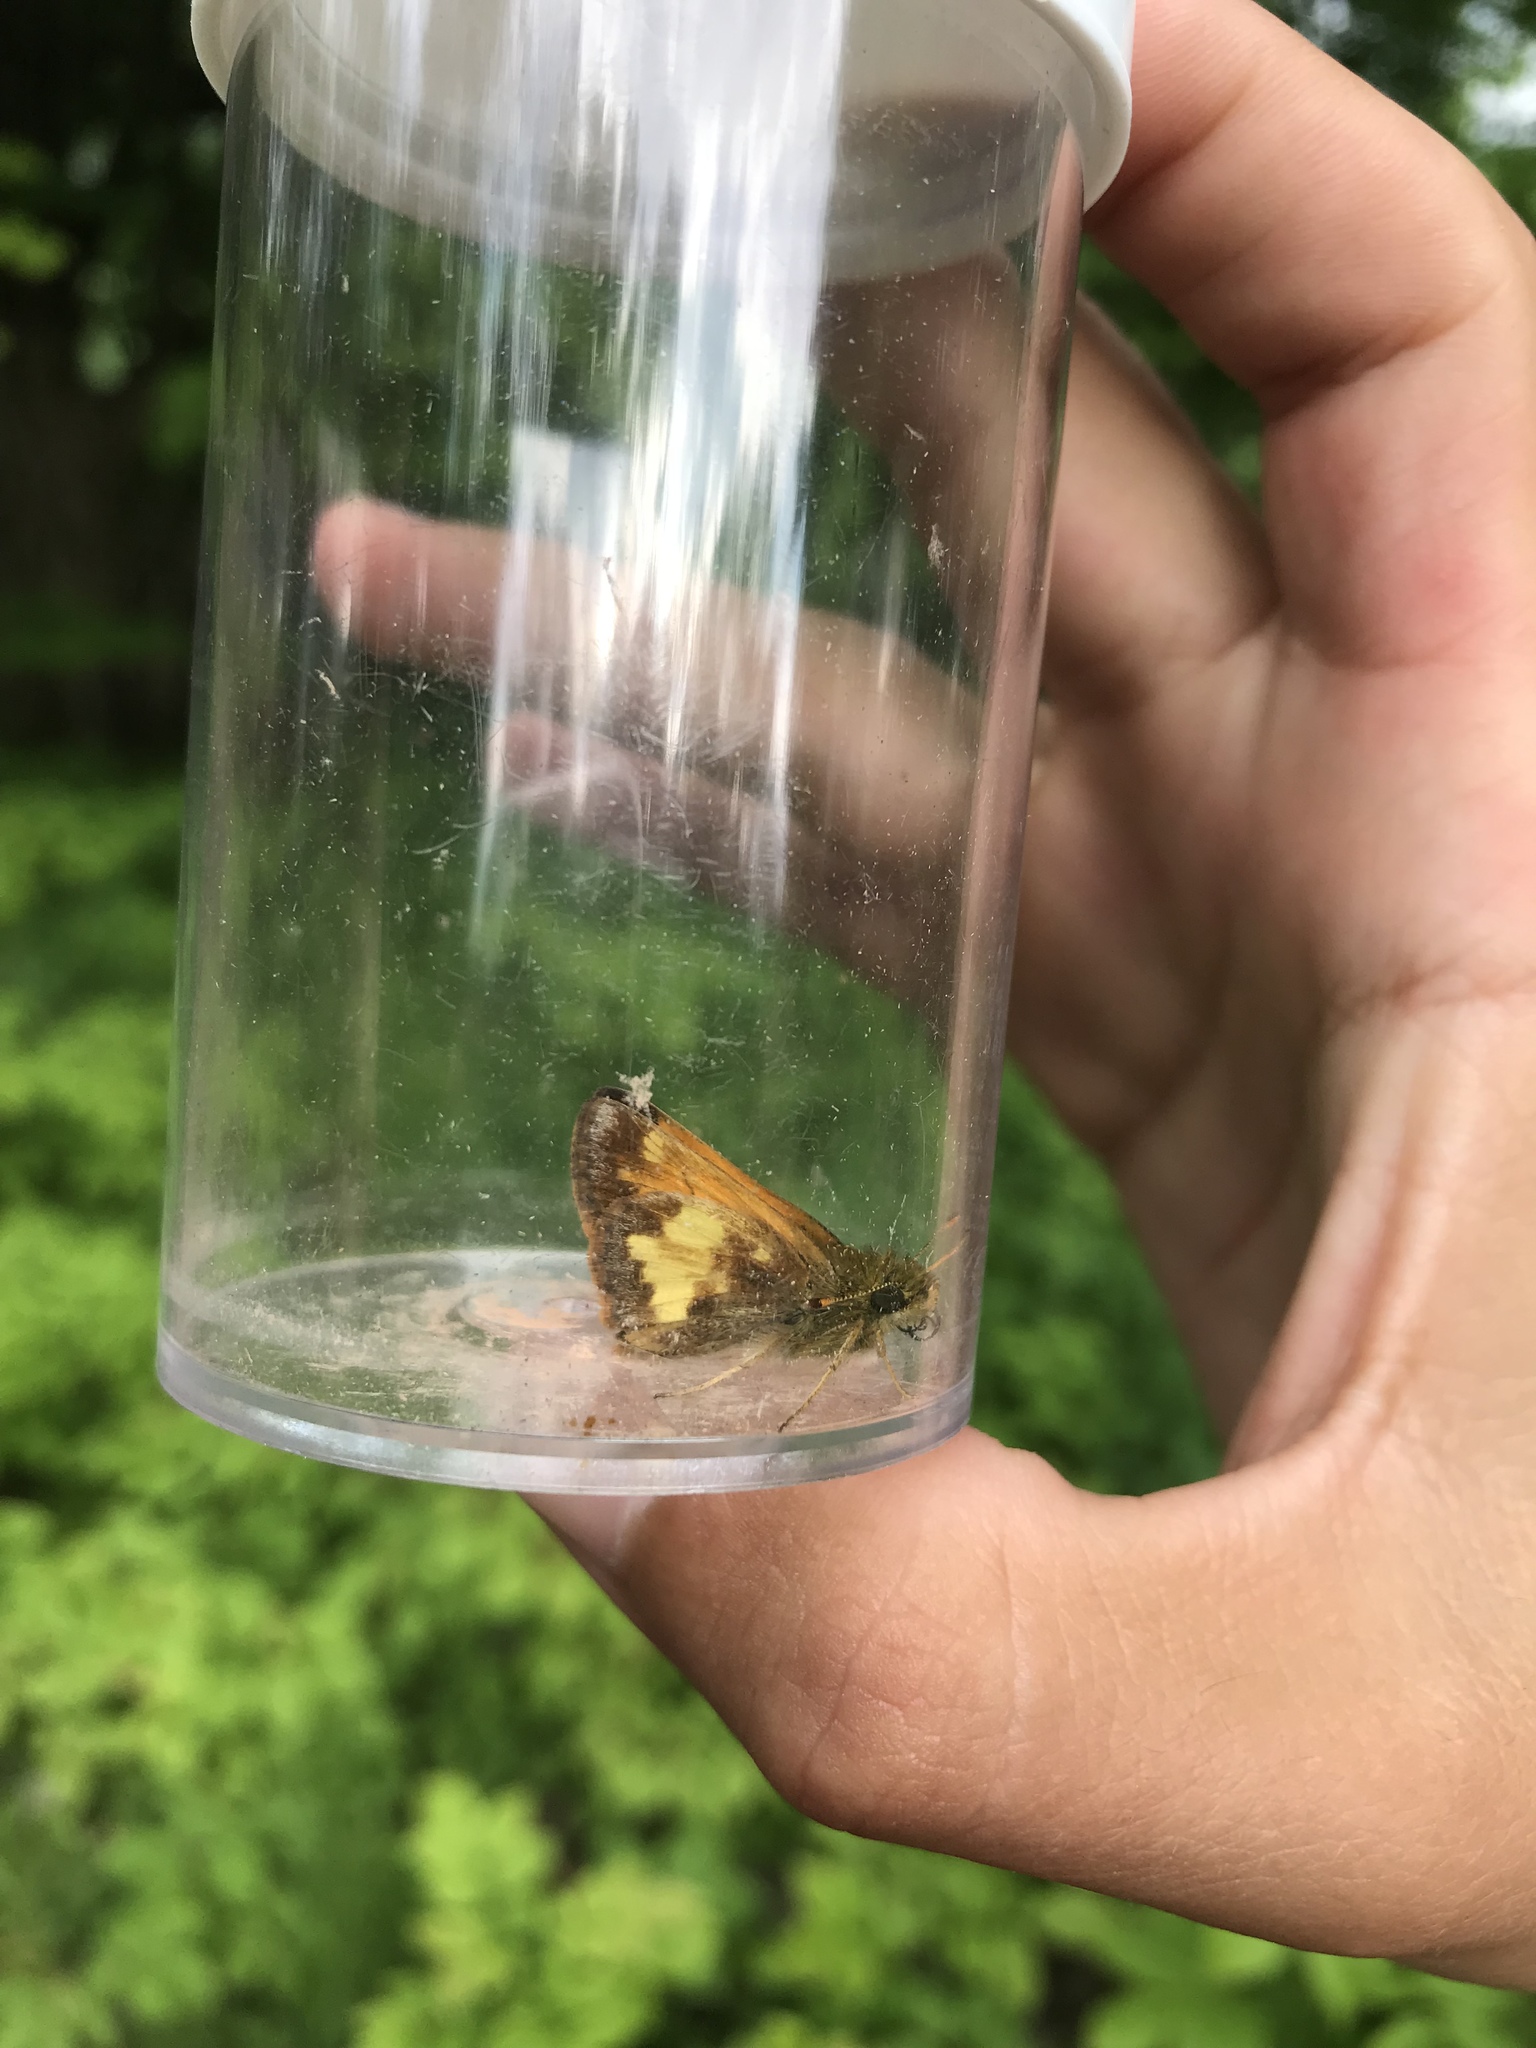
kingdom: Animalia
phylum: Arthropoda
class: Insecta
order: Lepidoptera
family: Hesperiidae
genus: Lon
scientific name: Lon hobomok
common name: Hobomok skipper
